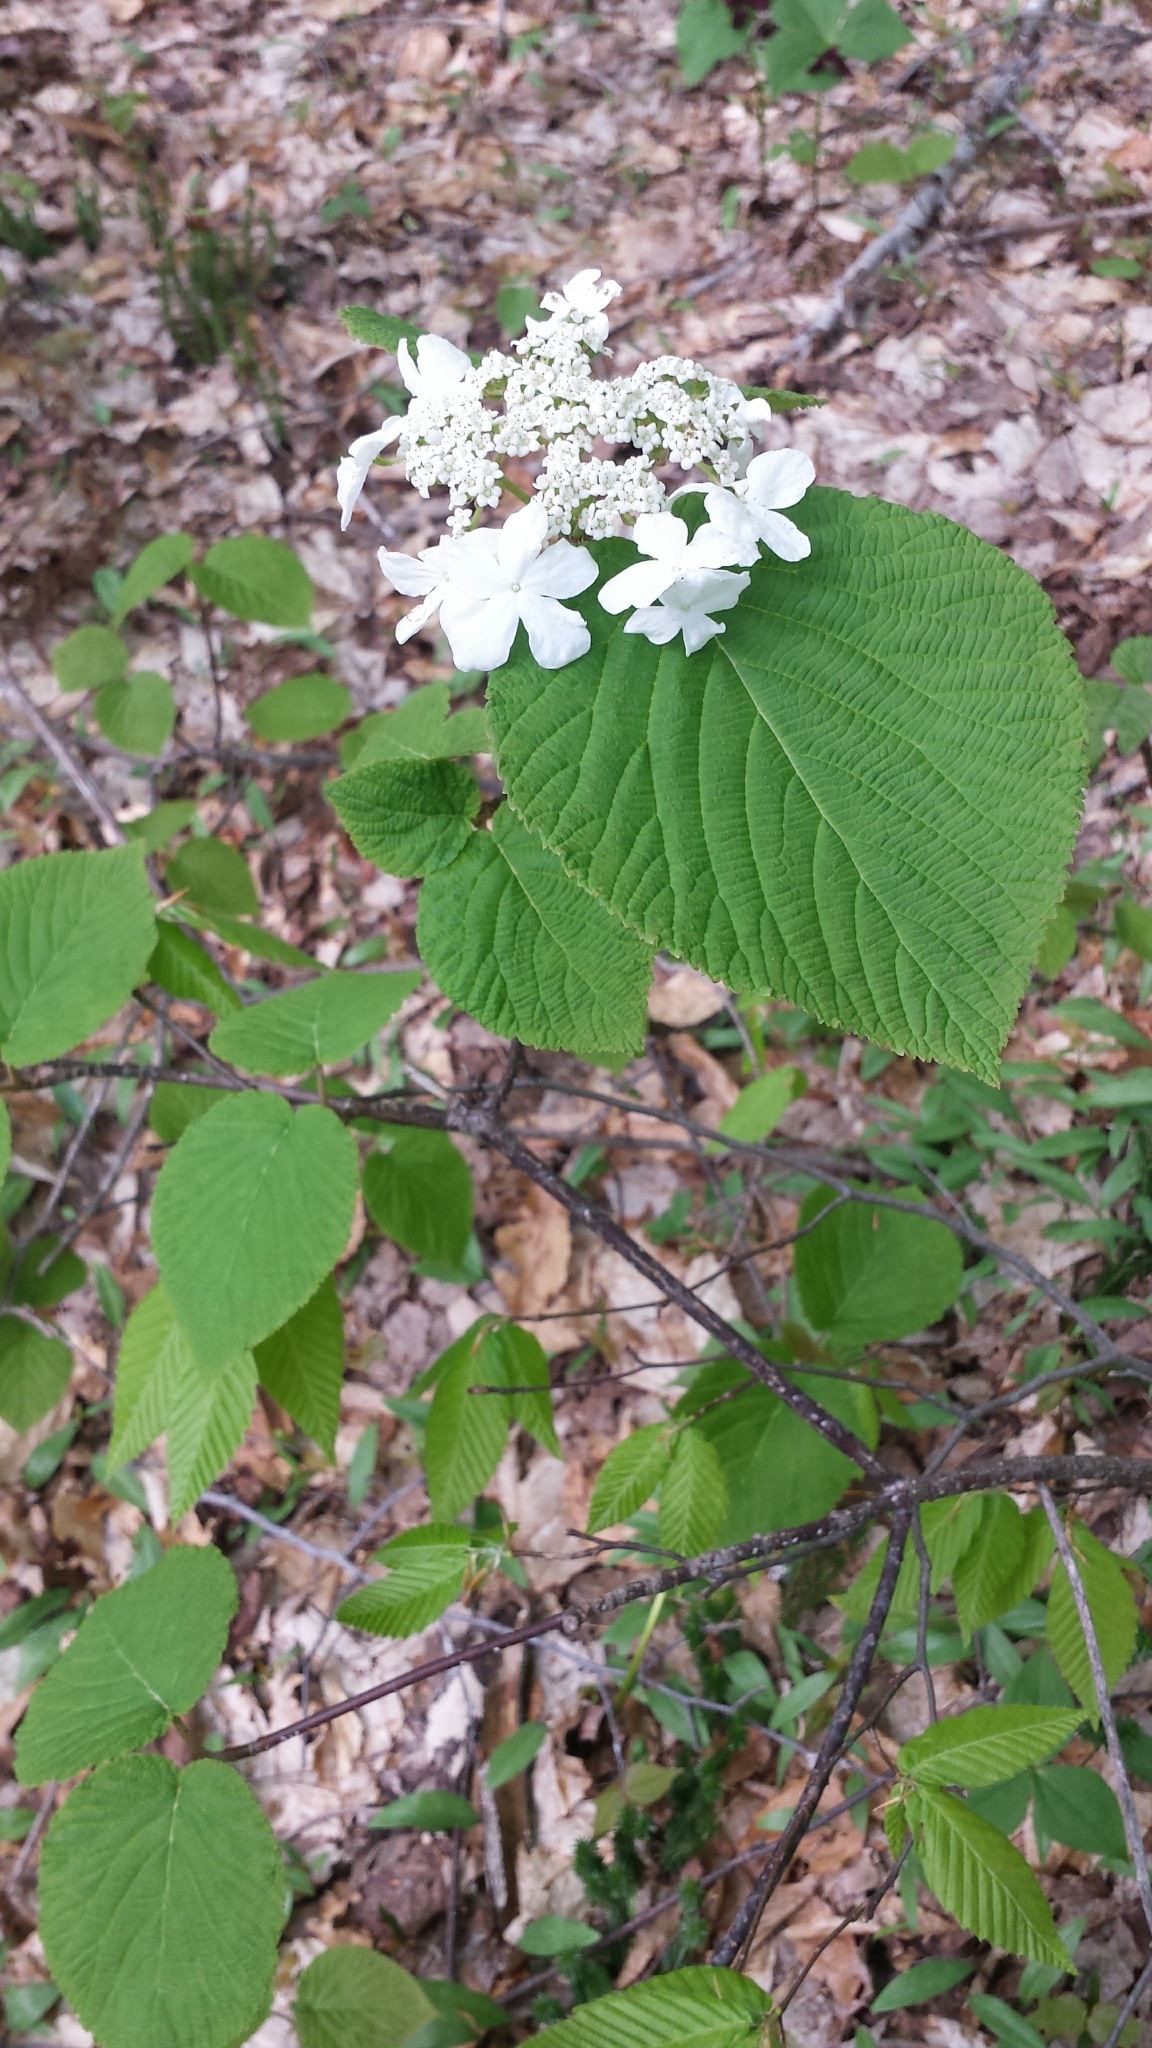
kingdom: Plantae
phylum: Tracheophyta
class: Magnoliopsida
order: Dipsacales
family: Viburnaceae
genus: Viburnum
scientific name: Viburnum lantanoides
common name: Hobblebush
